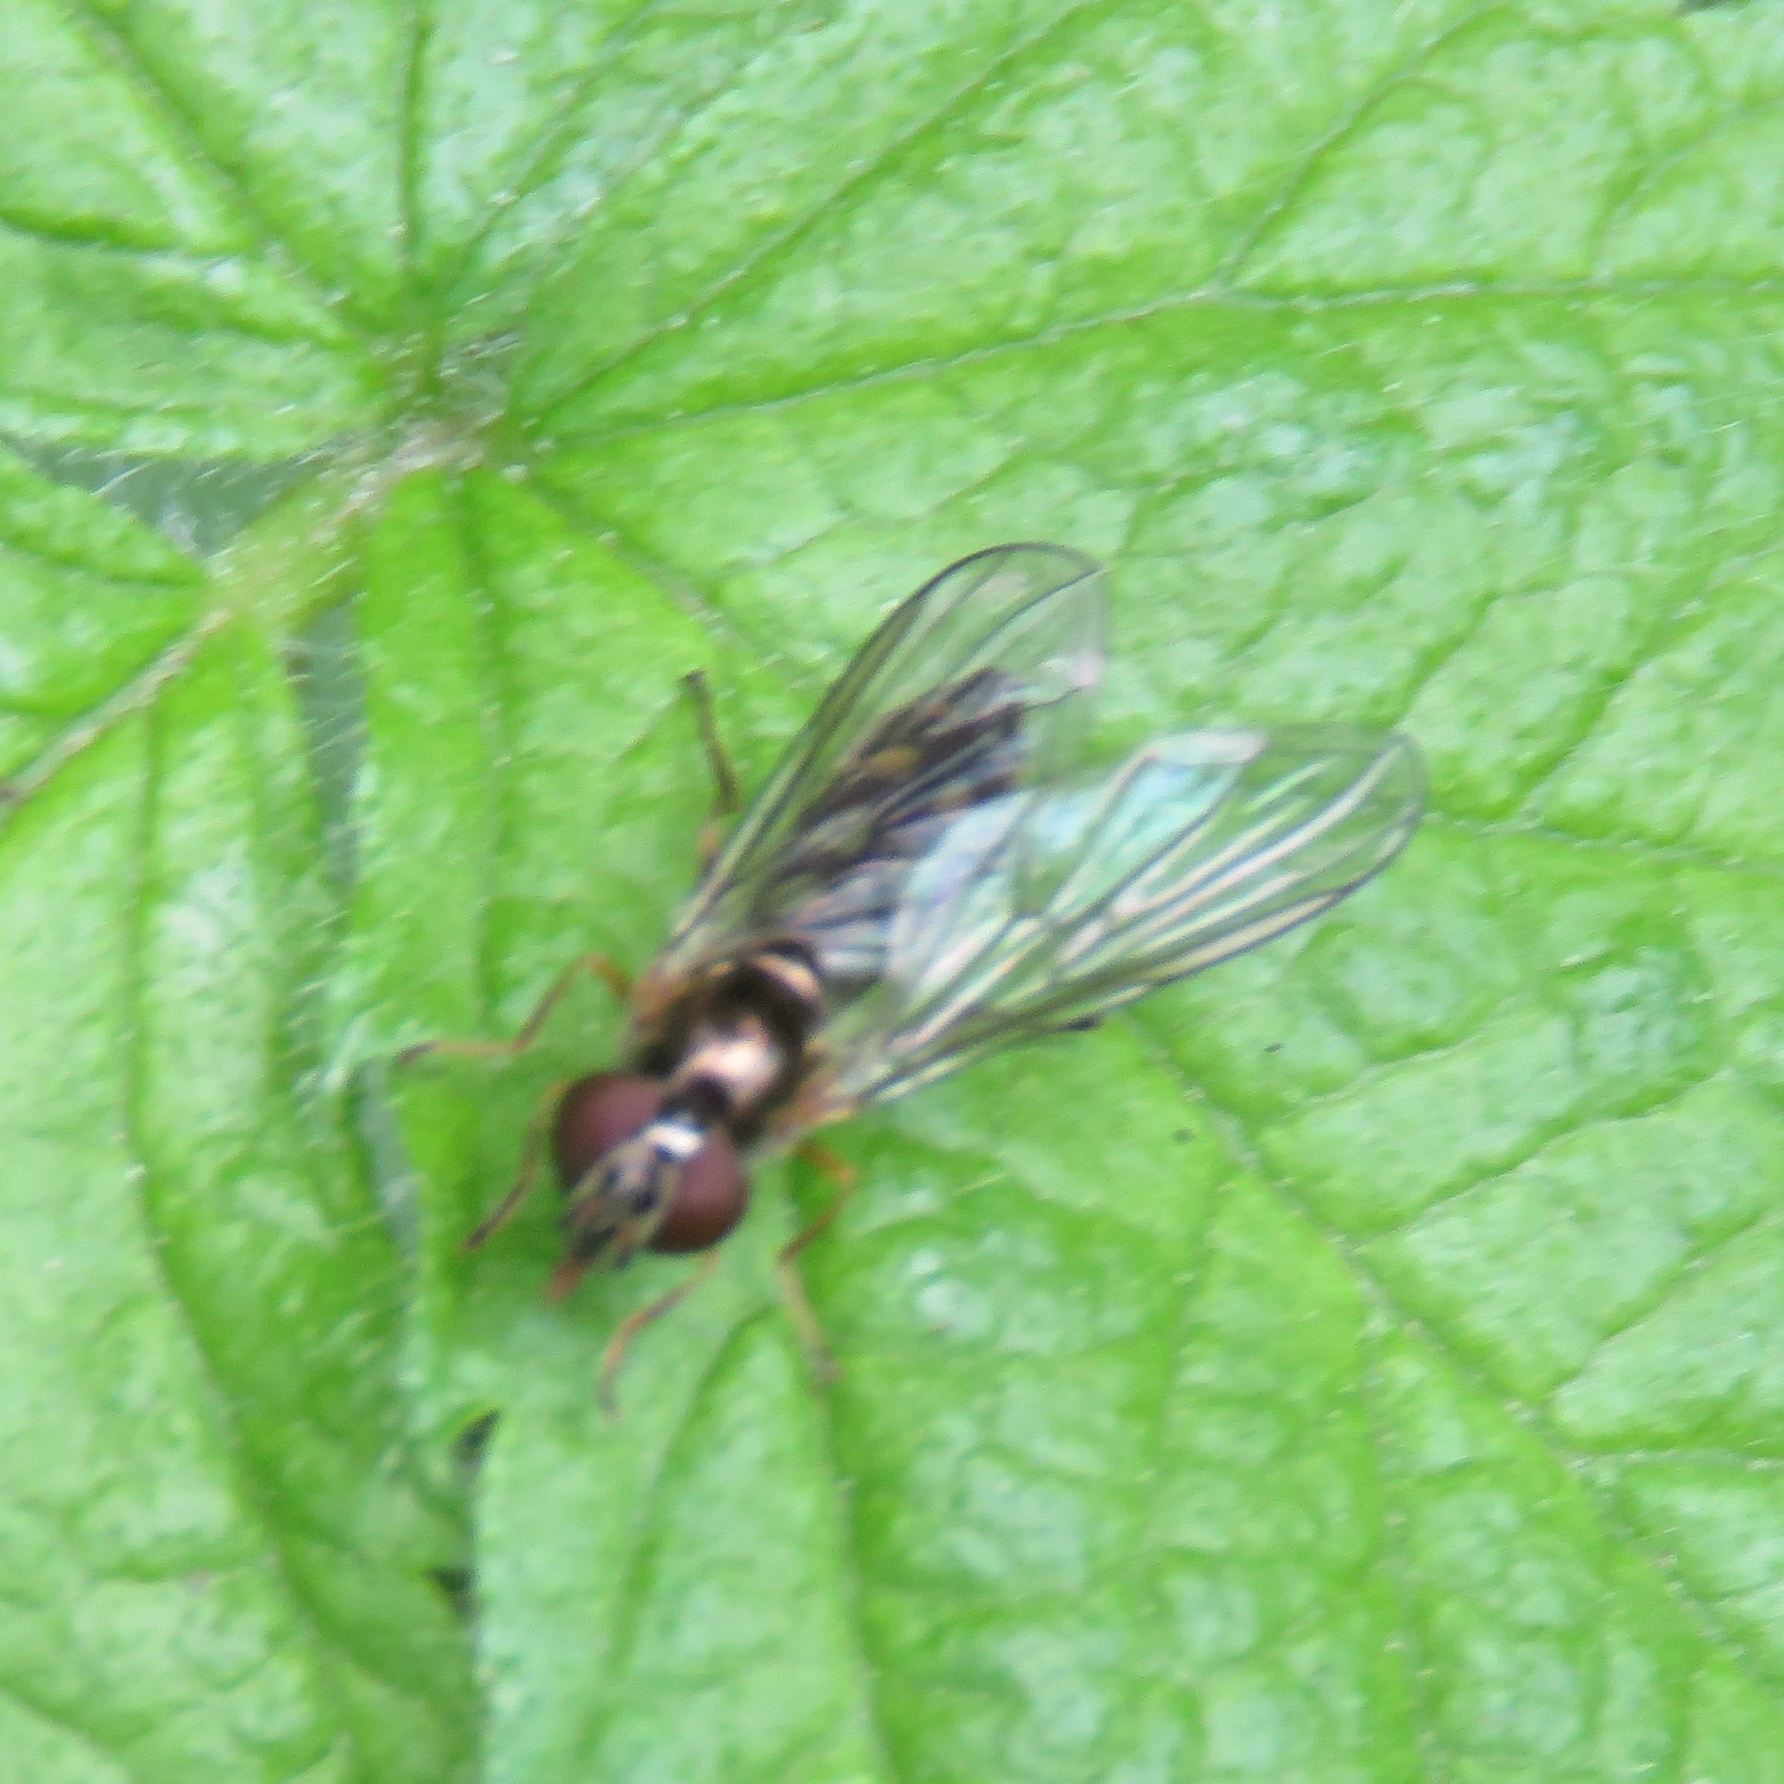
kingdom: Animalia
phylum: Arthropoda
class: Insecta
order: Diptera
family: Syrphidae
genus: Melanostoma
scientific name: Melanostoma scalare
